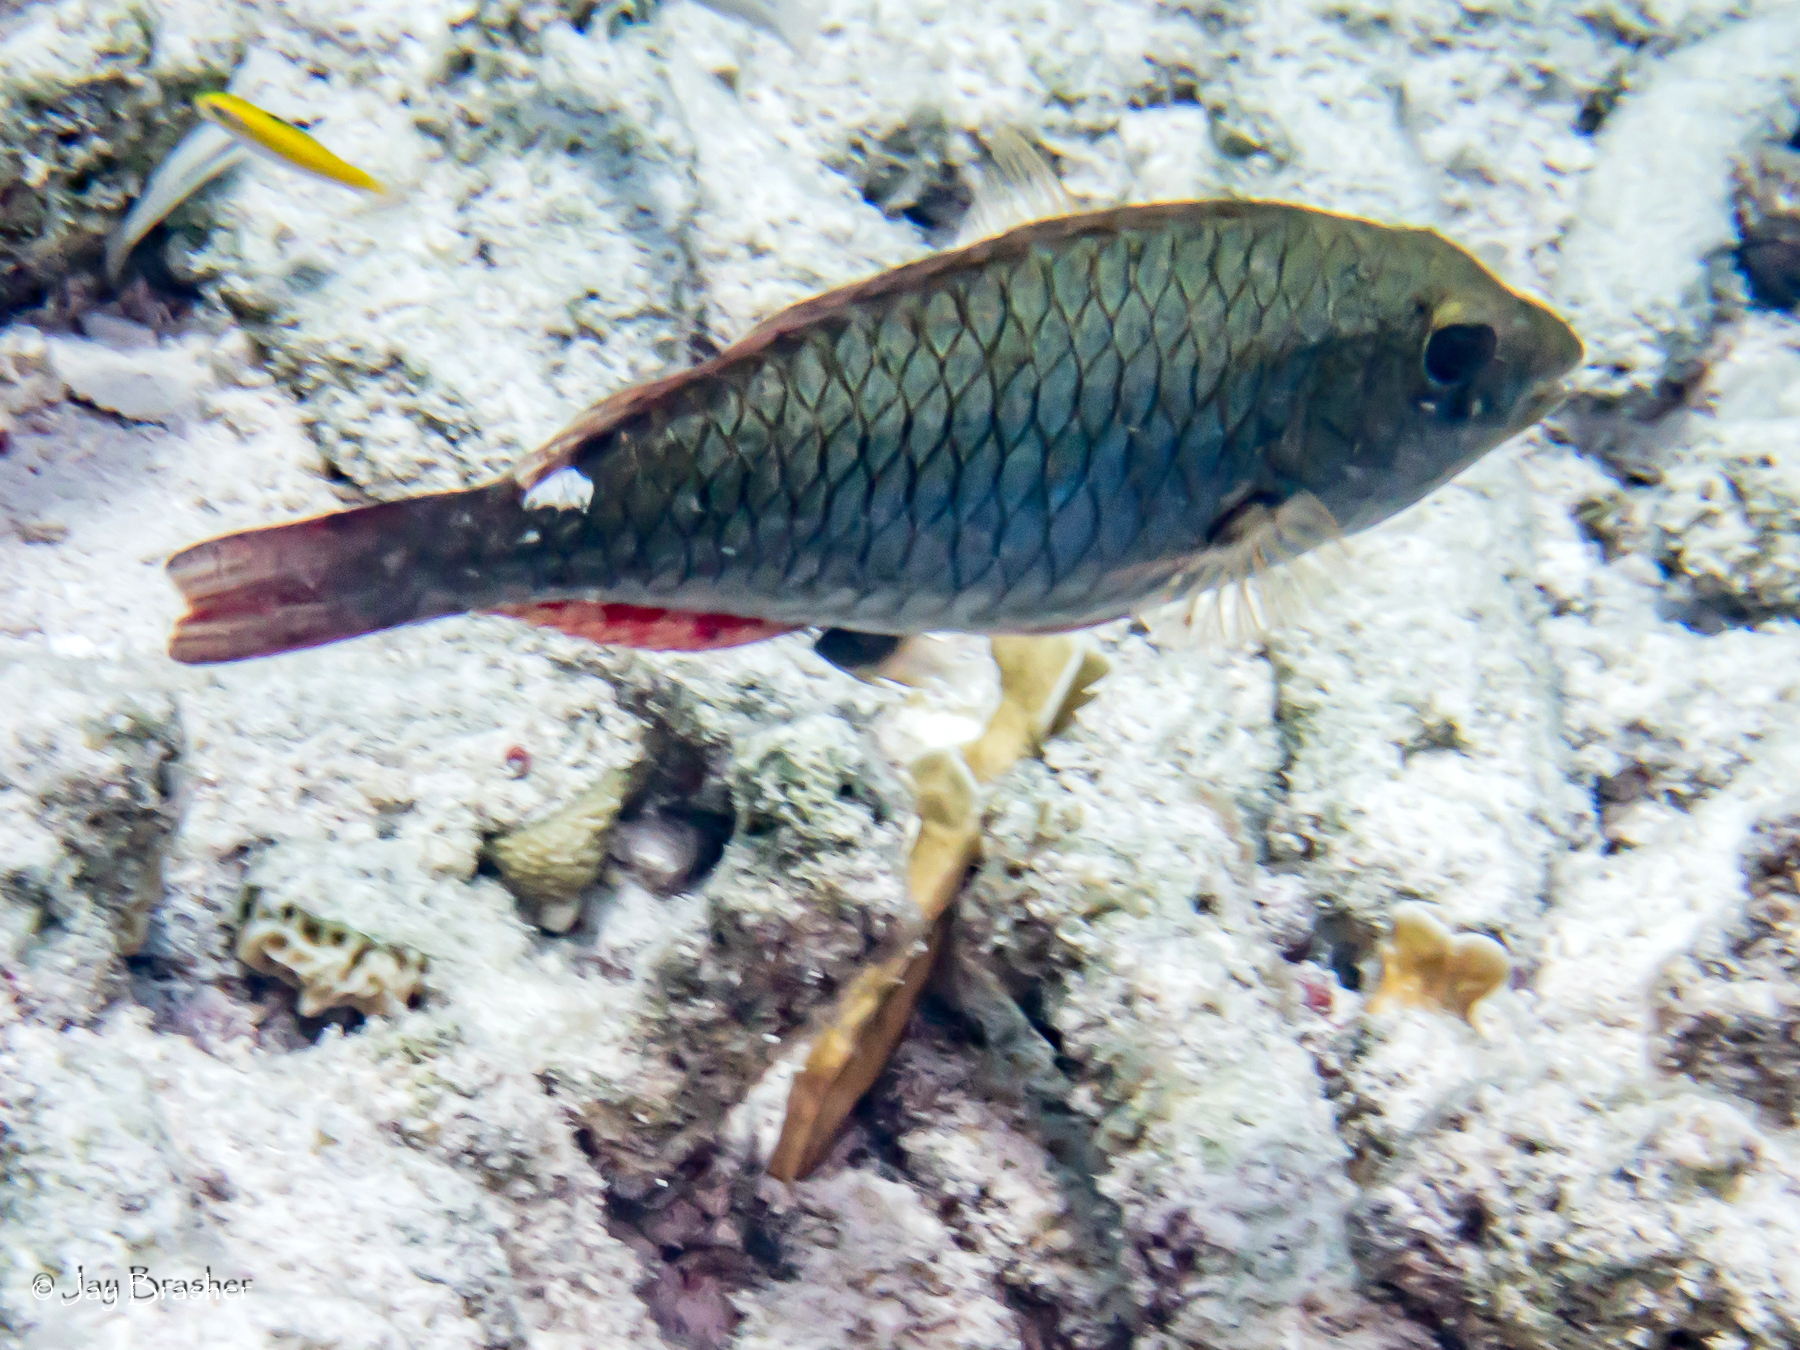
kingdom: Animalia
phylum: Chordata
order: Perciformes
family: Labridae
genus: Thalassoma
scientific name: Thalassoma bifasciatum
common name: Bluehead wrasse
